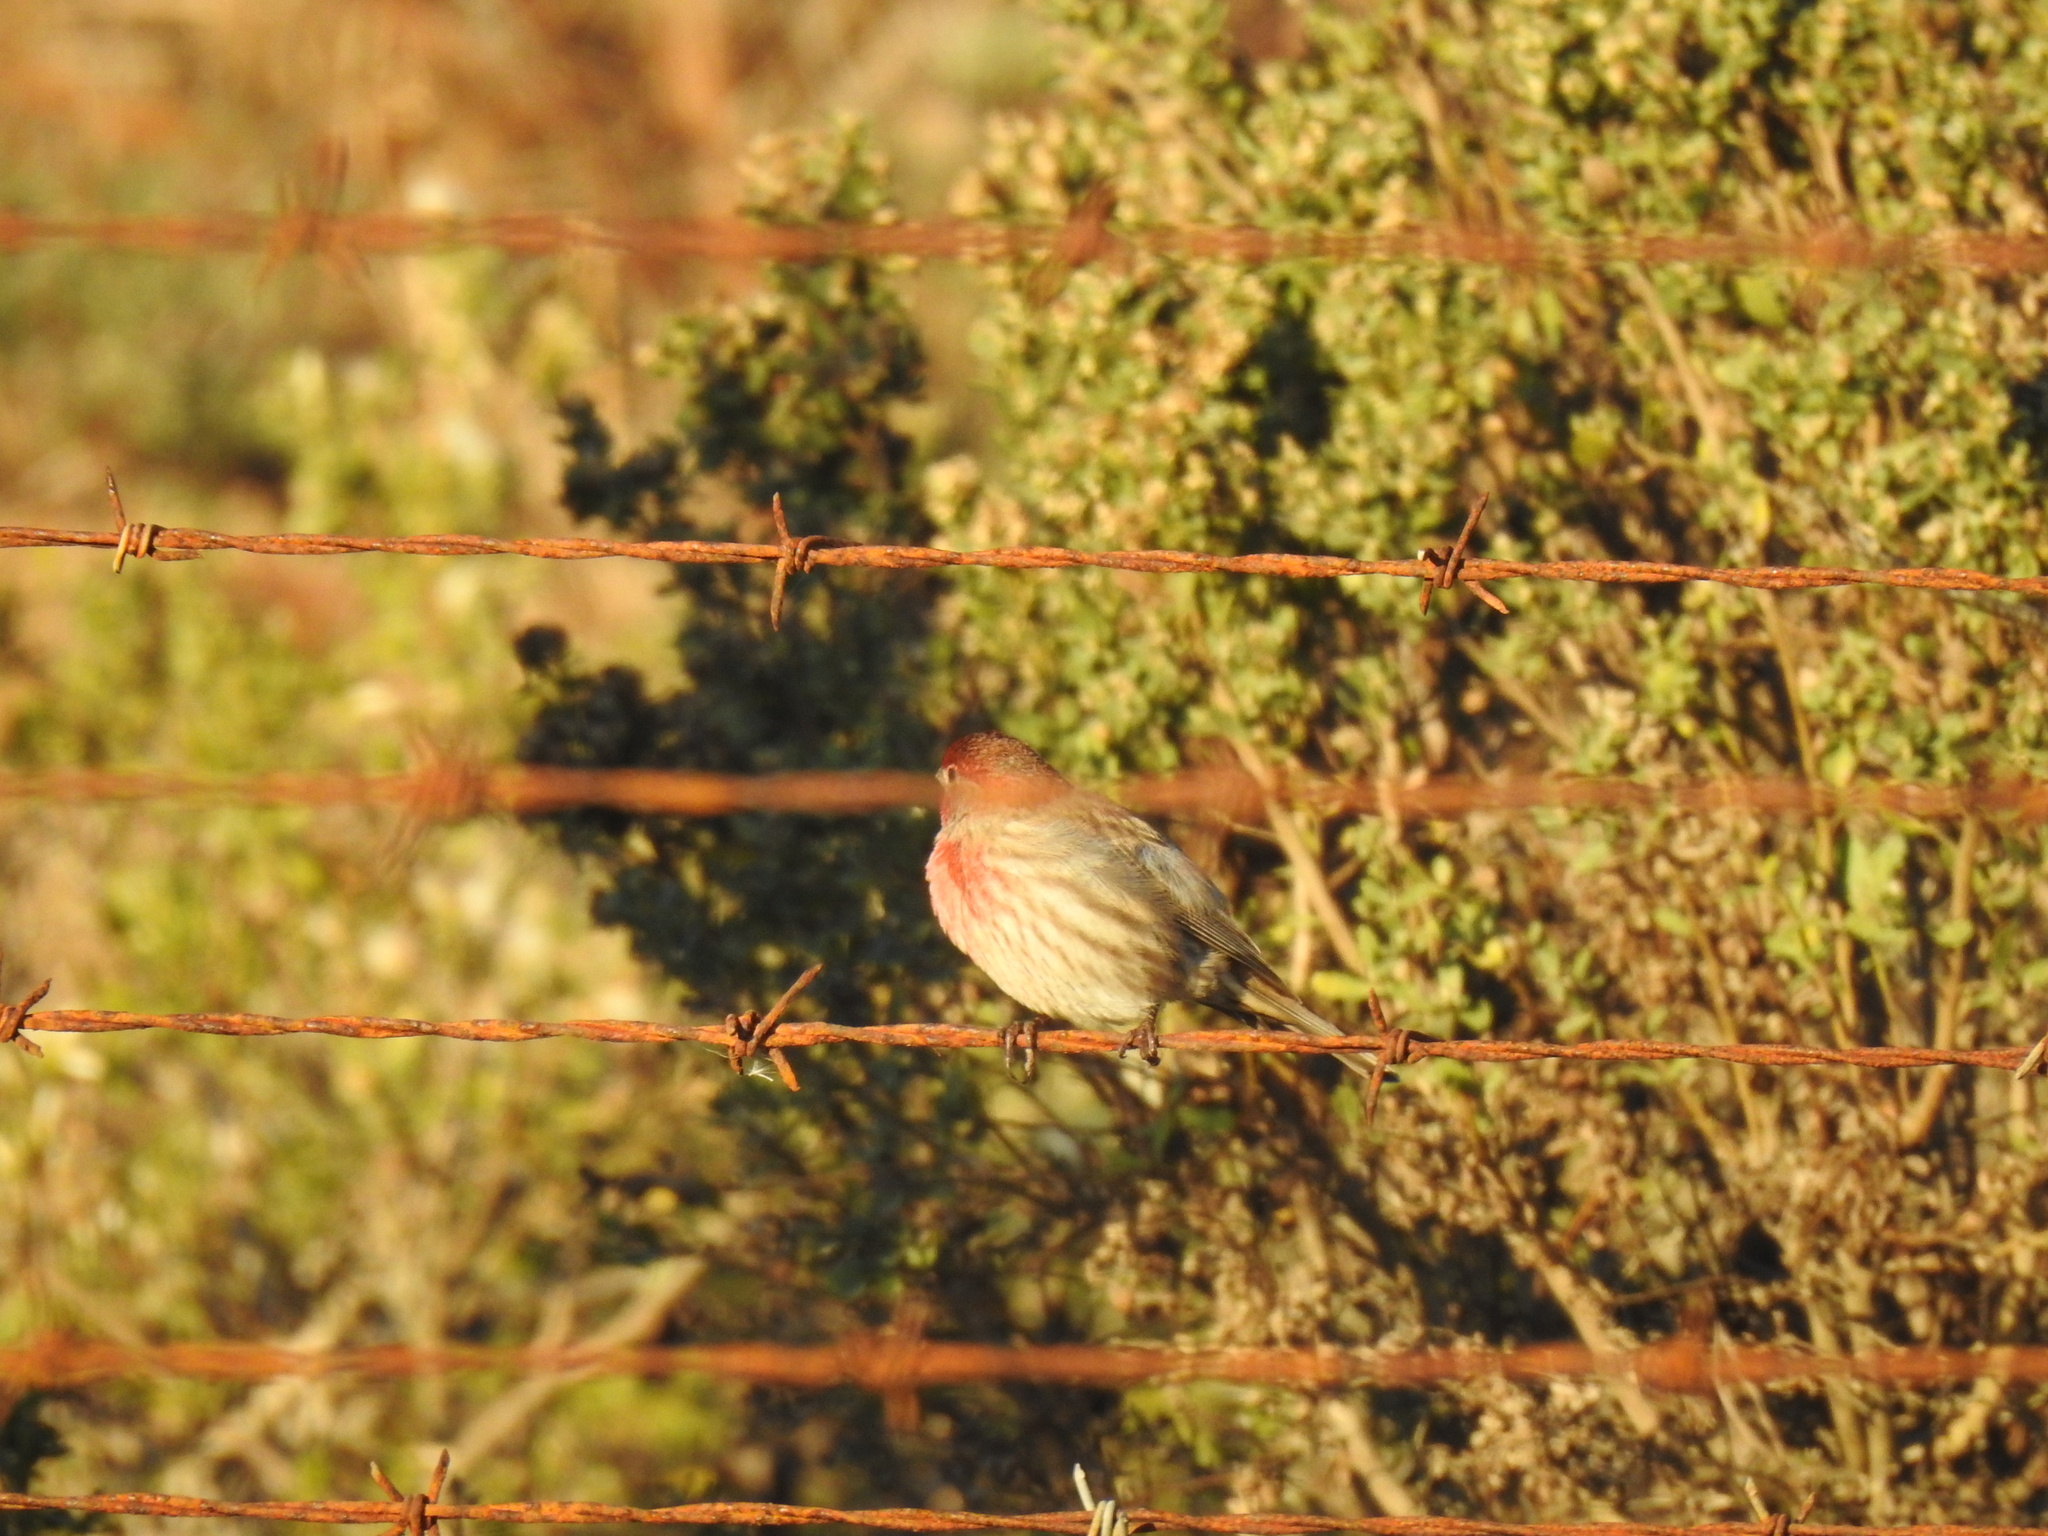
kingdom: Animalia
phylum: Chordata
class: Aves
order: Passeriformes
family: Fringillidae
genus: Haemorhous
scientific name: Haemorhous mexicanus
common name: House finch
